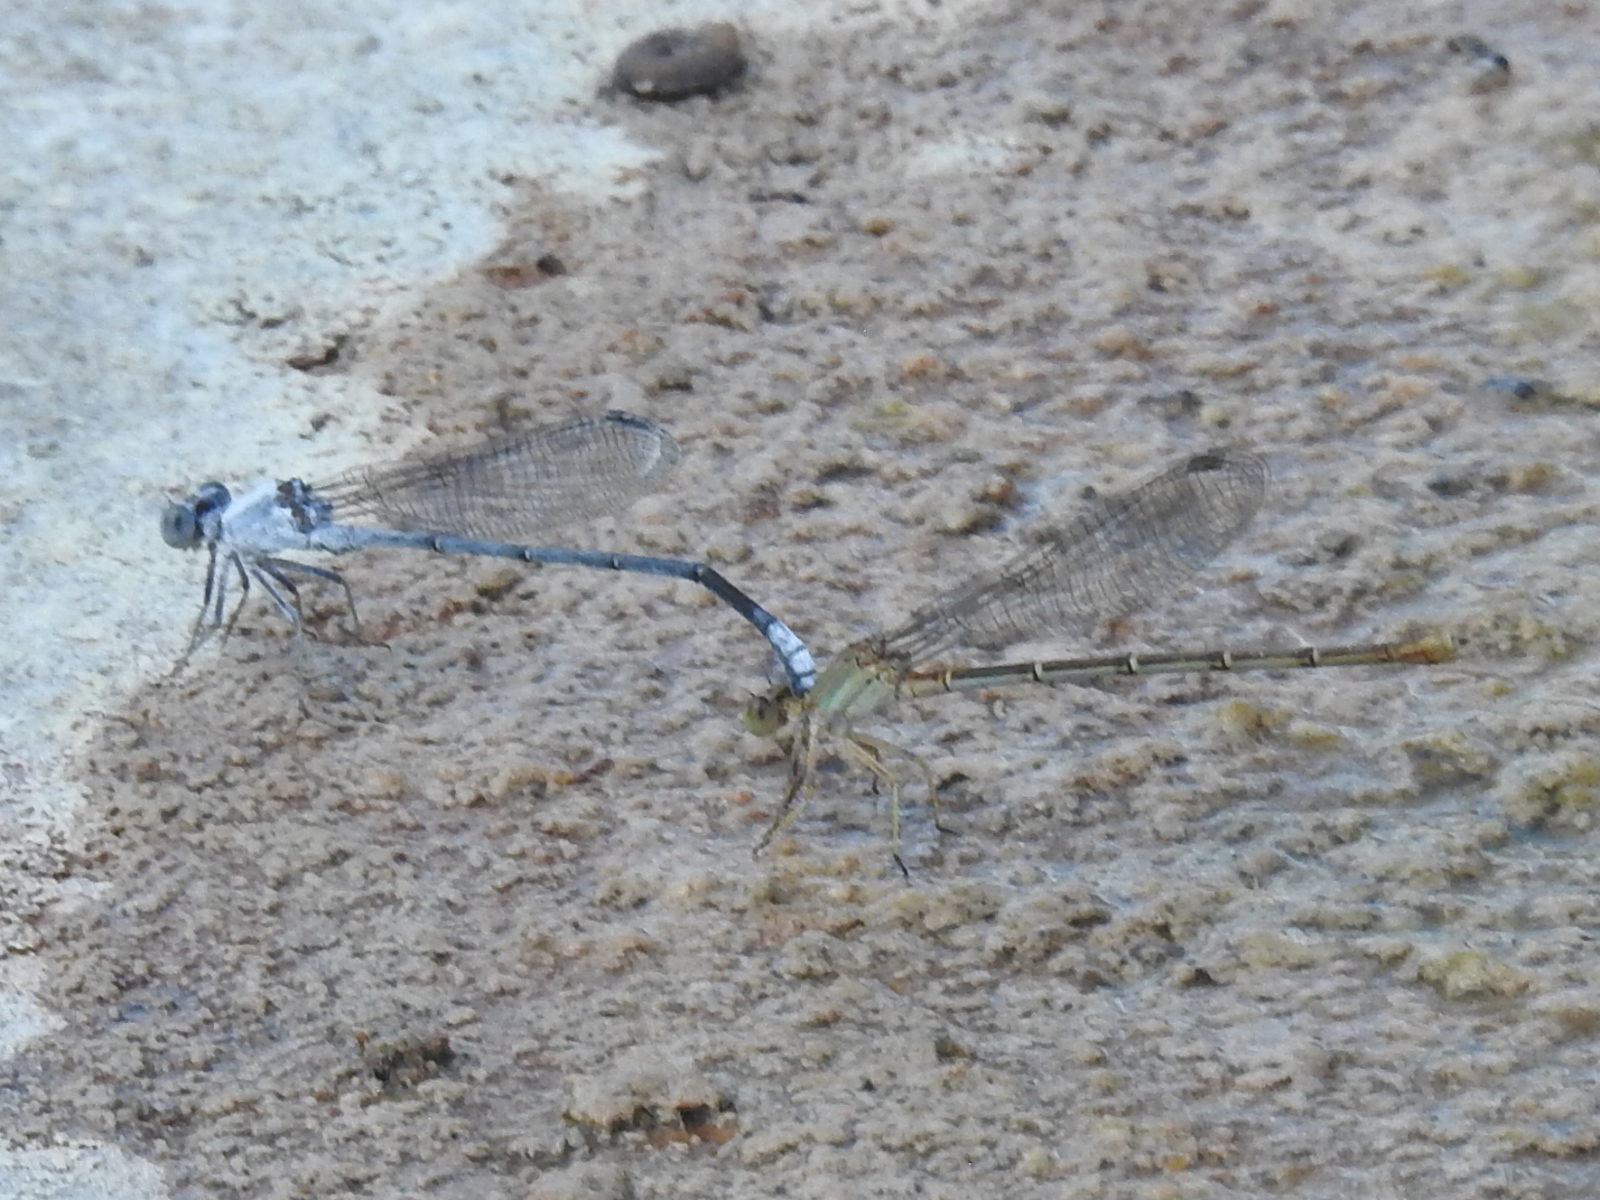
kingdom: Animalia
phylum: Arthropoda
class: Insecta
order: Odonata
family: Coenagrionidae
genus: Argia
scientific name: Argia moesta
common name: Powdered dancer
